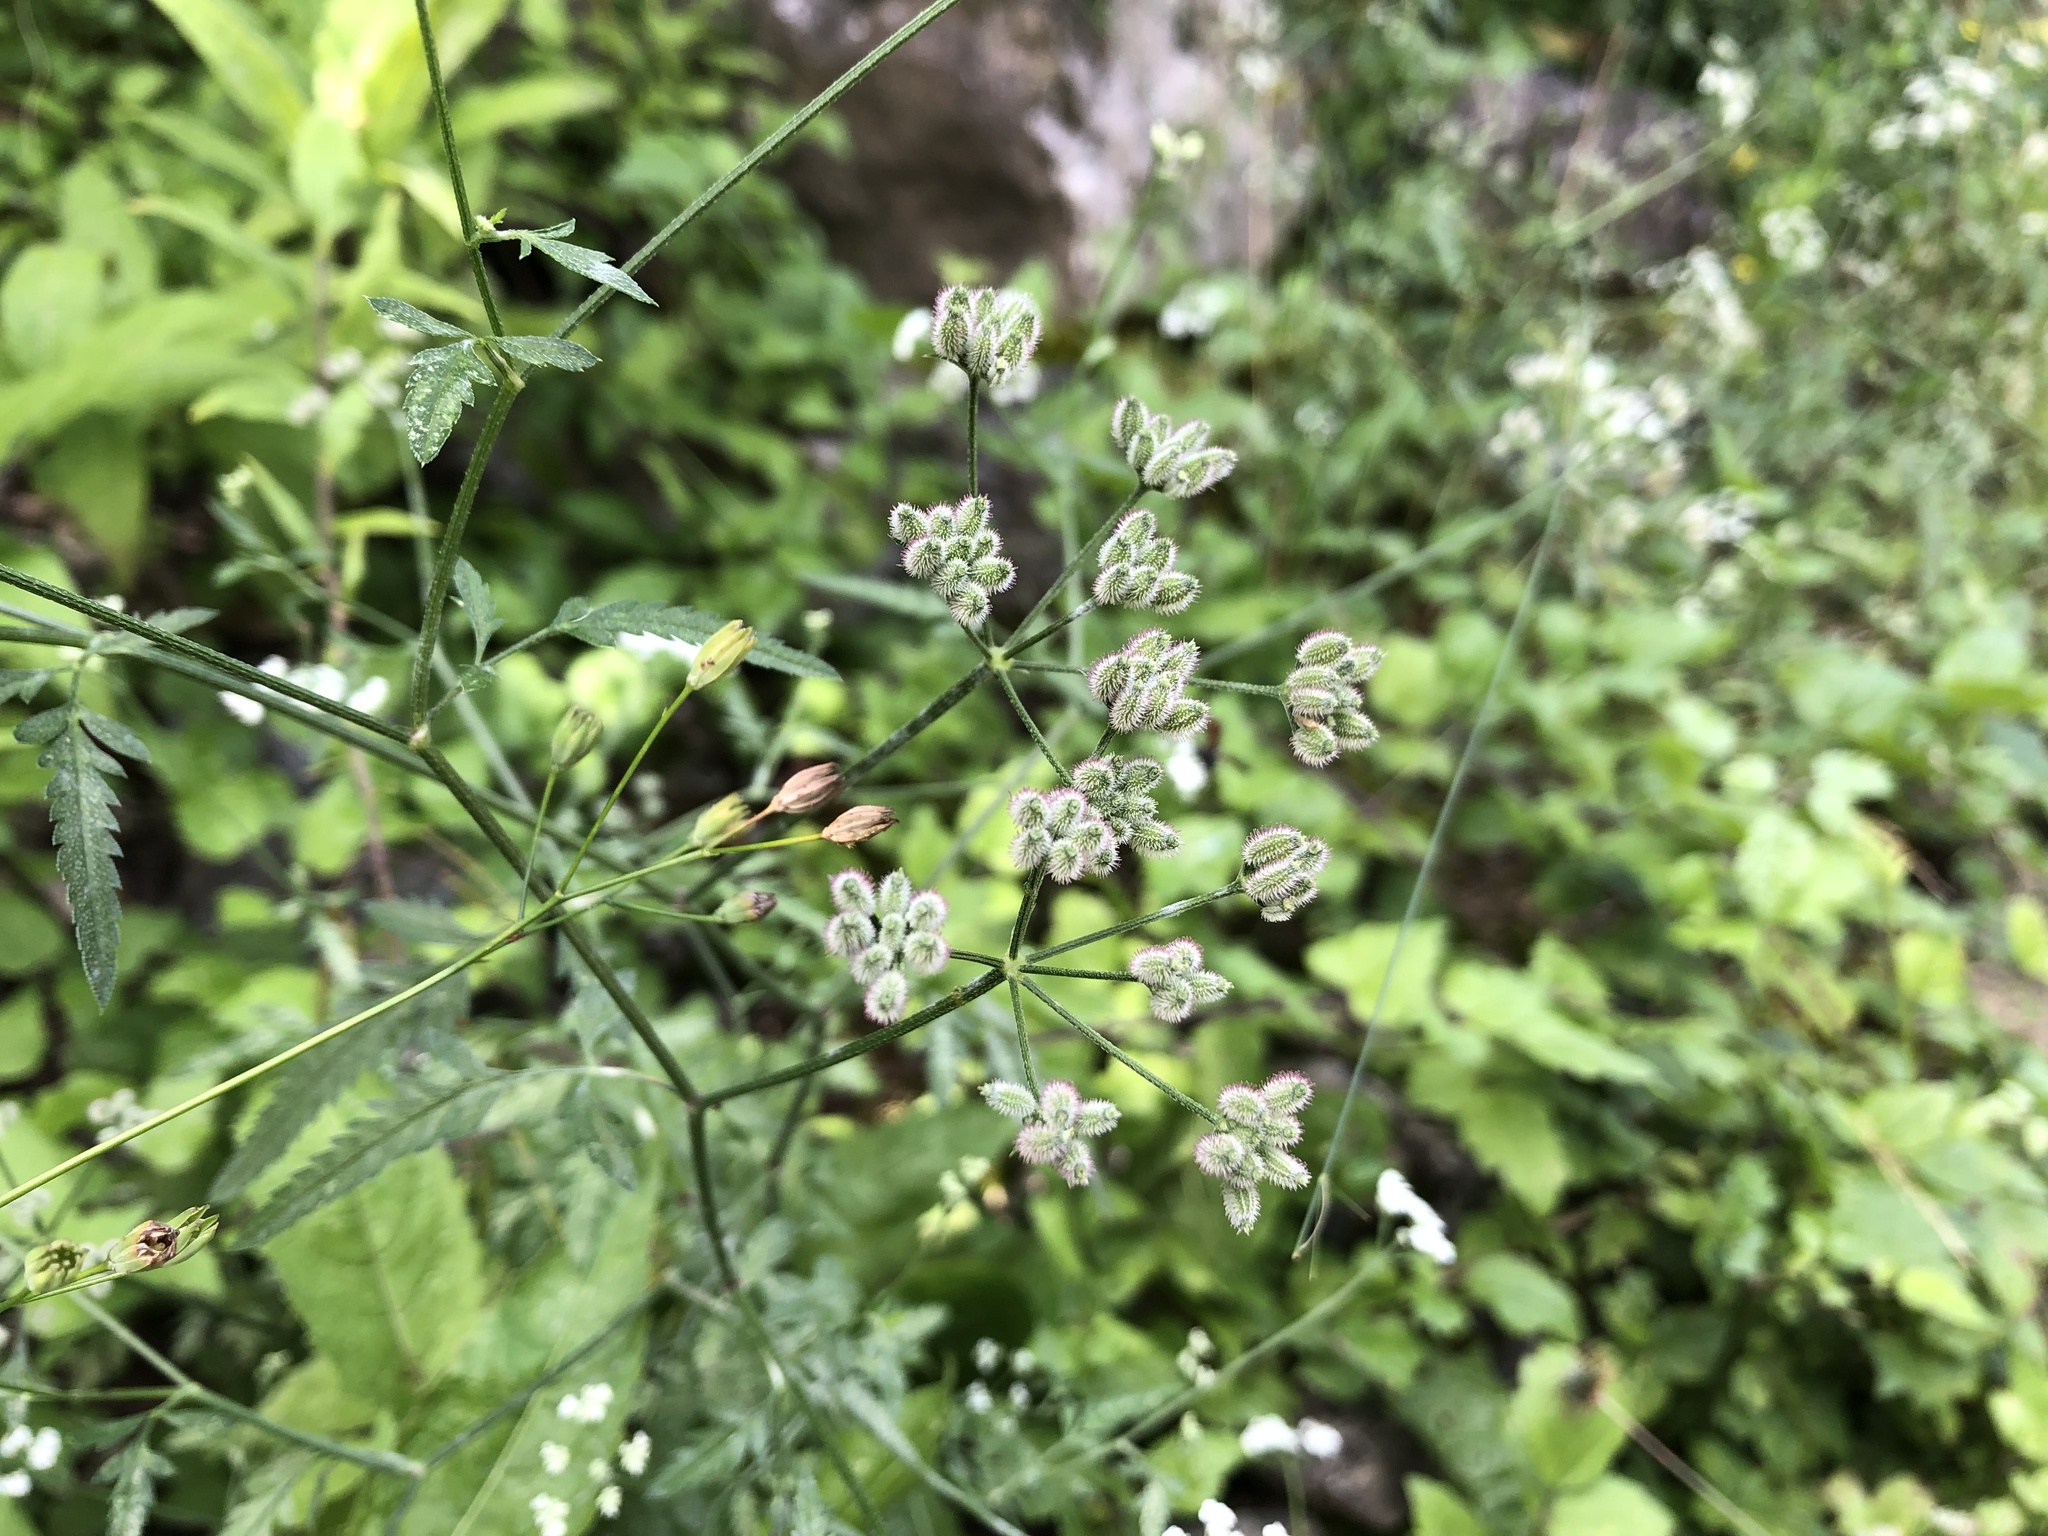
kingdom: Plantae
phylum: Tracheophyta
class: Magnoliopsida
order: Apiales
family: Apiaceae
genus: Torilis
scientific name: Torilis japonica
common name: Upright hedge-parsley
